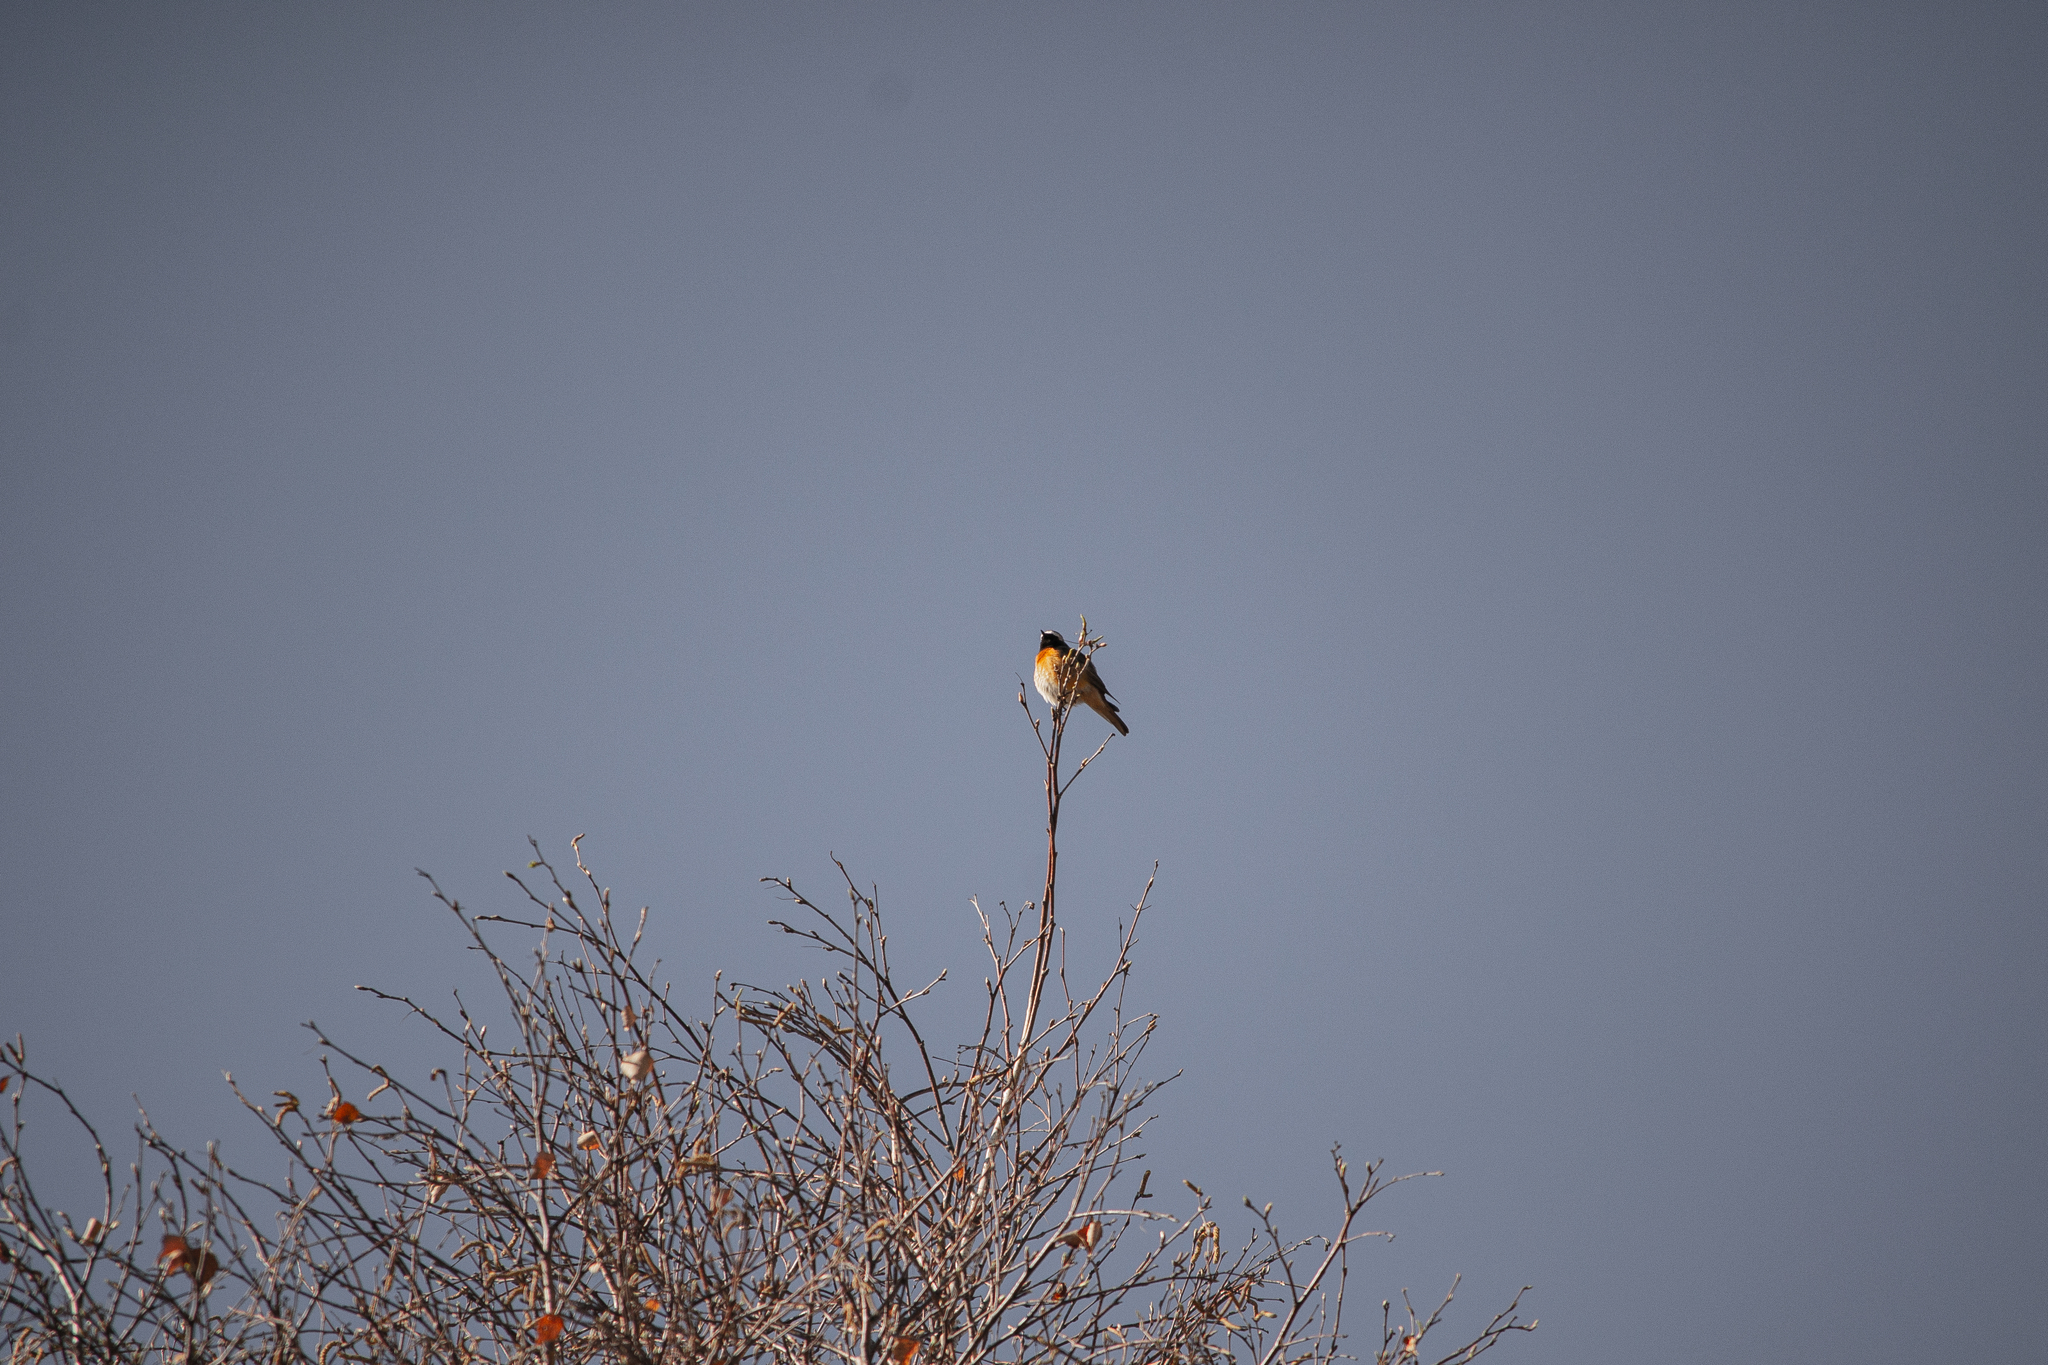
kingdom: Animalia
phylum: Chordata
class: Aves
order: Passeriformes
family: Muscicapidae
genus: Phoenicurus
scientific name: Phoenicurus phoenicurus
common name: Common redstart
